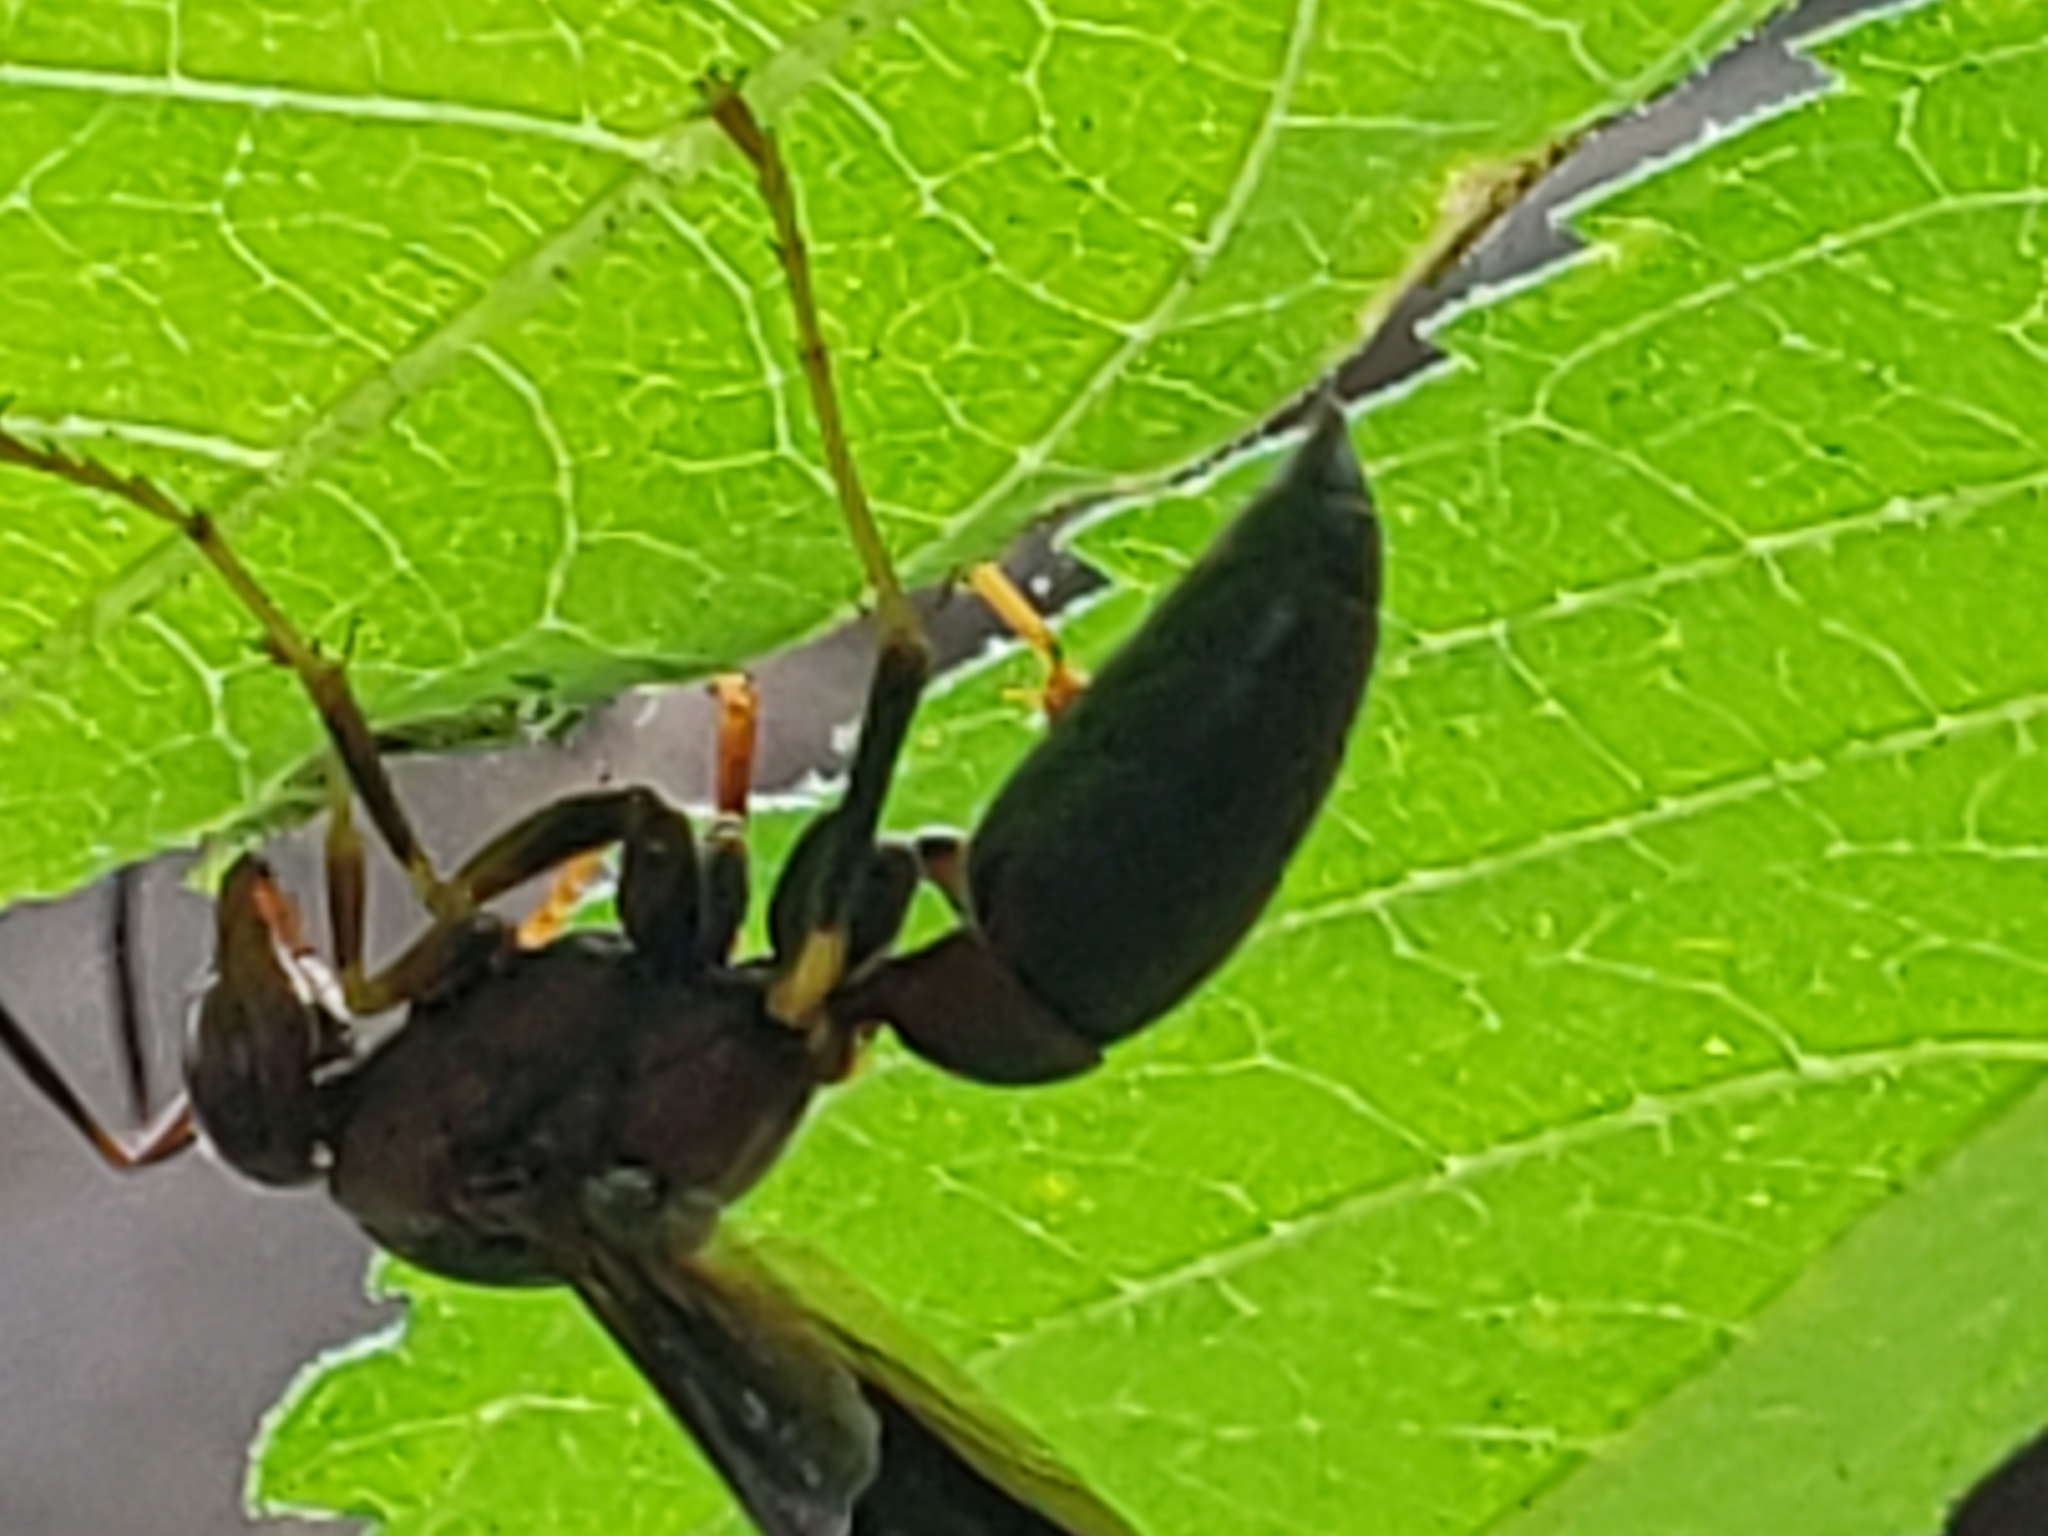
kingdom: Animalia
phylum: Arthropoda
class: Insecta
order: Hymenoptera
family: Eumenidae
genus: Polistes
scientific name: Polistes metricus
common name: Metric paper wasp
